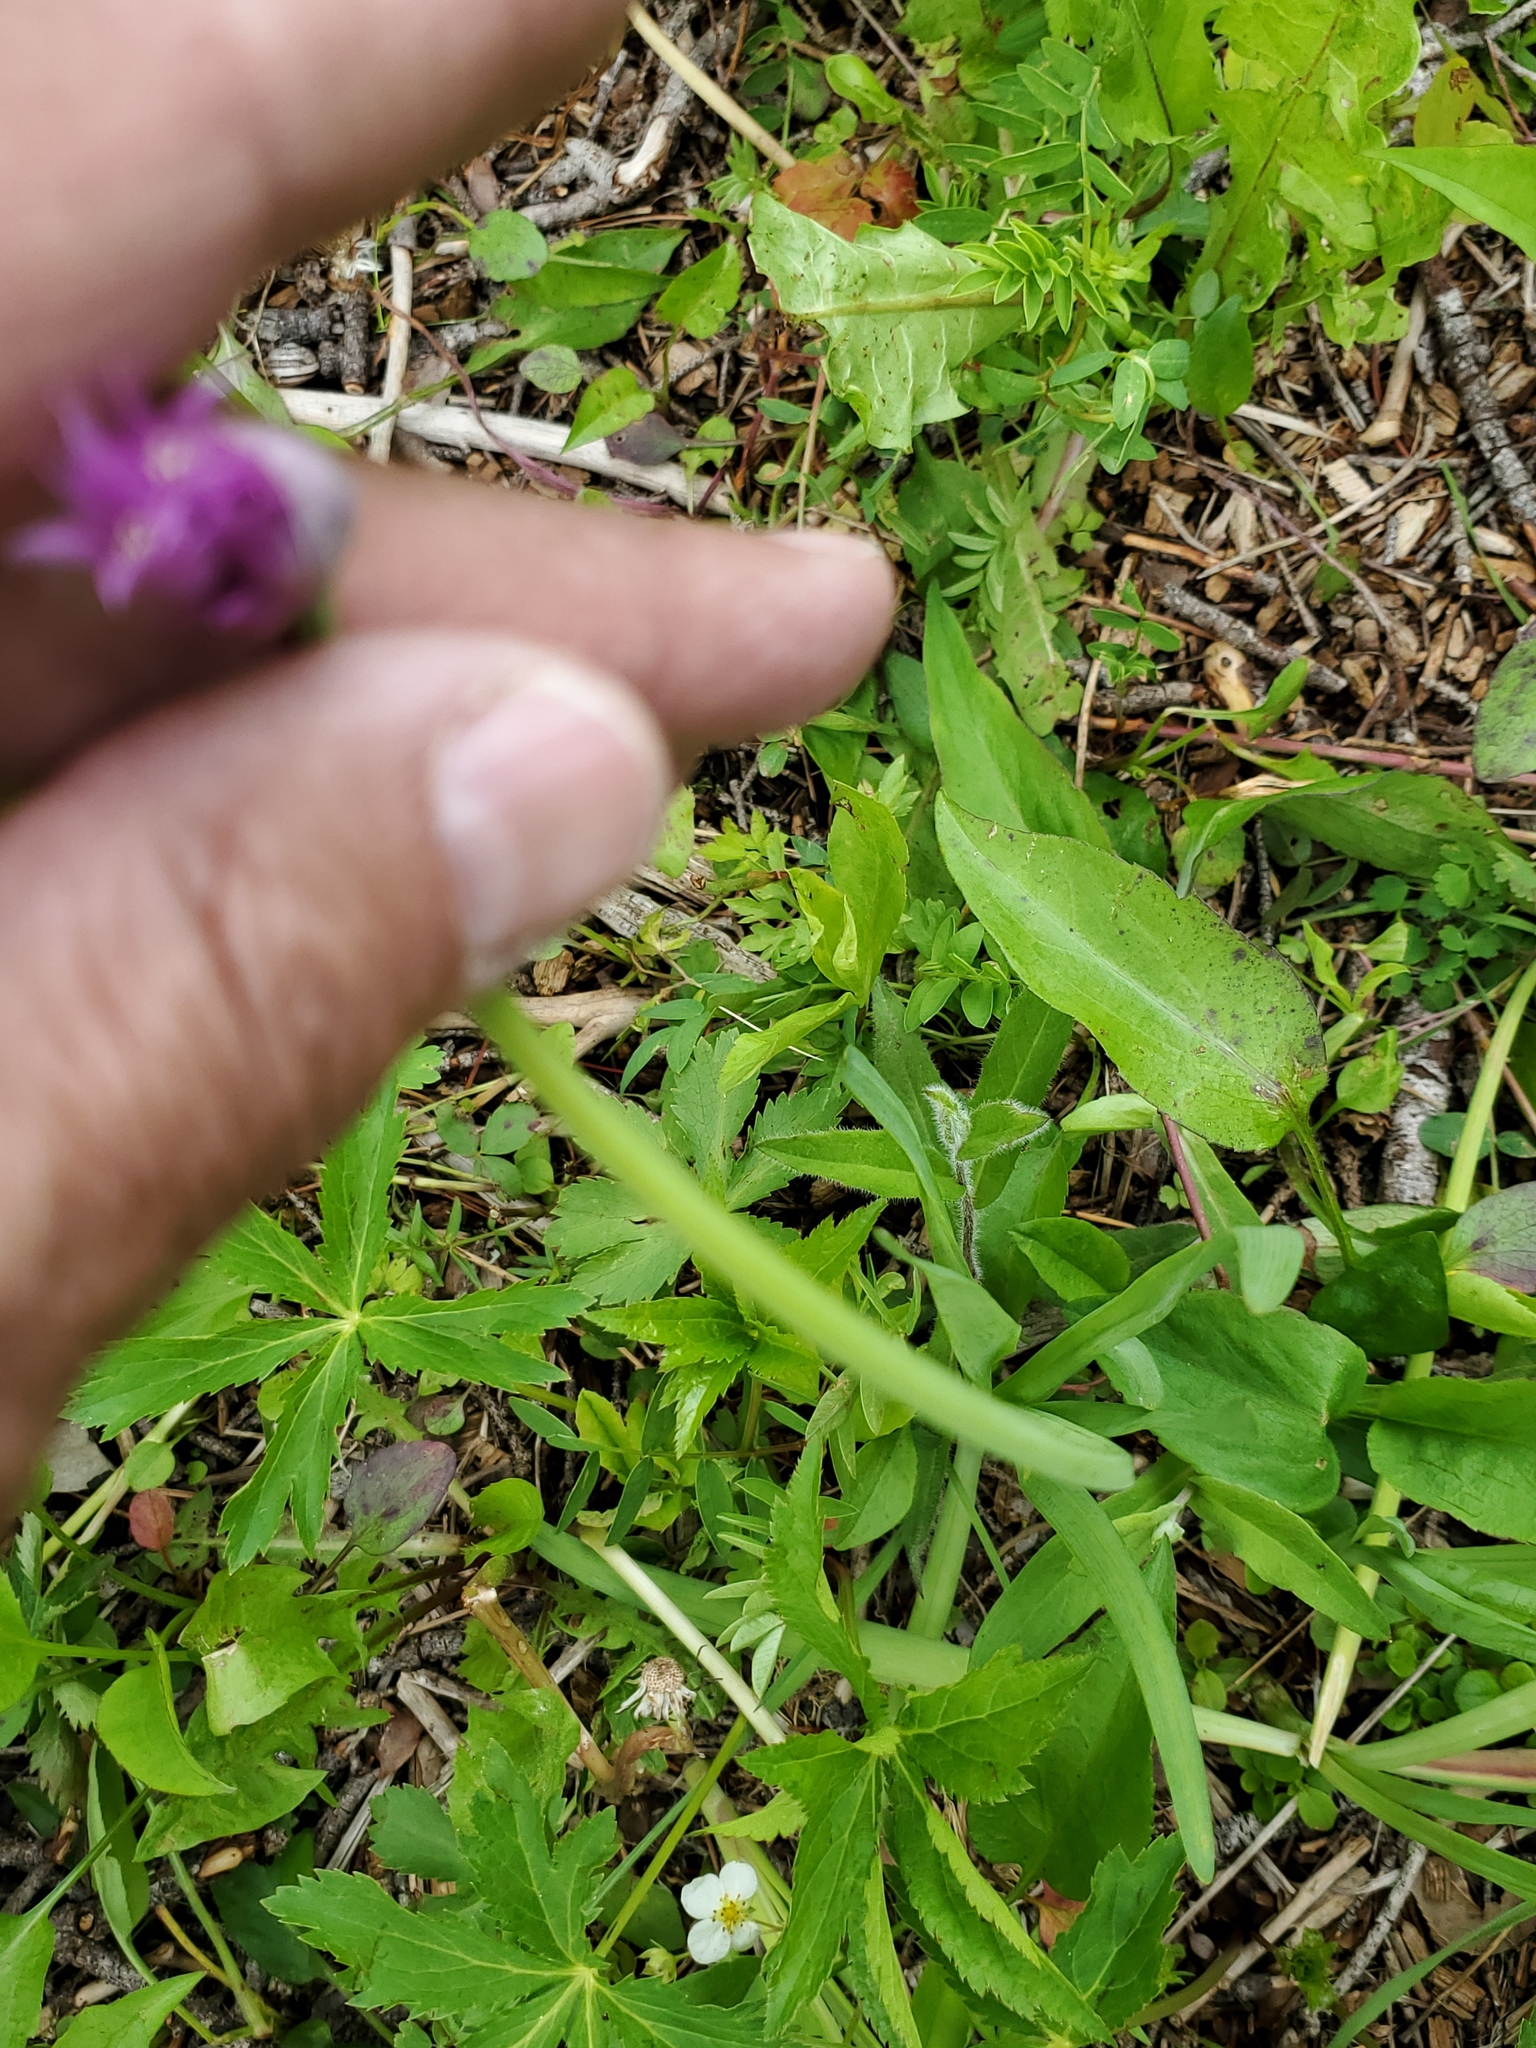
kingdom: Plantae
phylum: Tracheophyta
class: Liliopsida
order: Asparagales
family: Amaryllidaceae
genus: Allium
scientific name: Allium brevistylum
